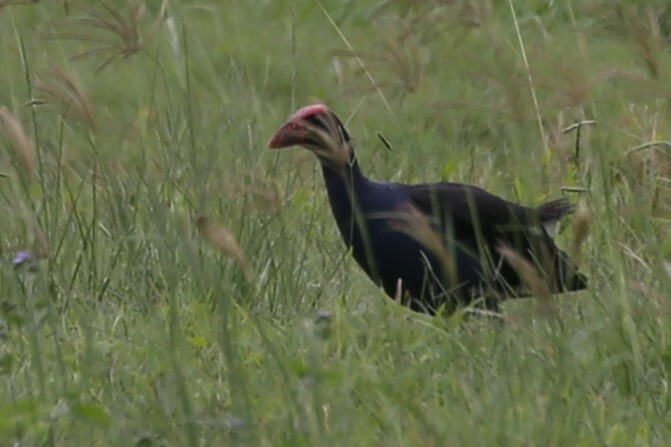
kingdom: Animalia
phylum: Chordata
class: Aves
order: Gruiformes
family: Rallidae
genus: Porphyrio
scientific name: Porphyrio melanotus
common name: Australasian swamphen
